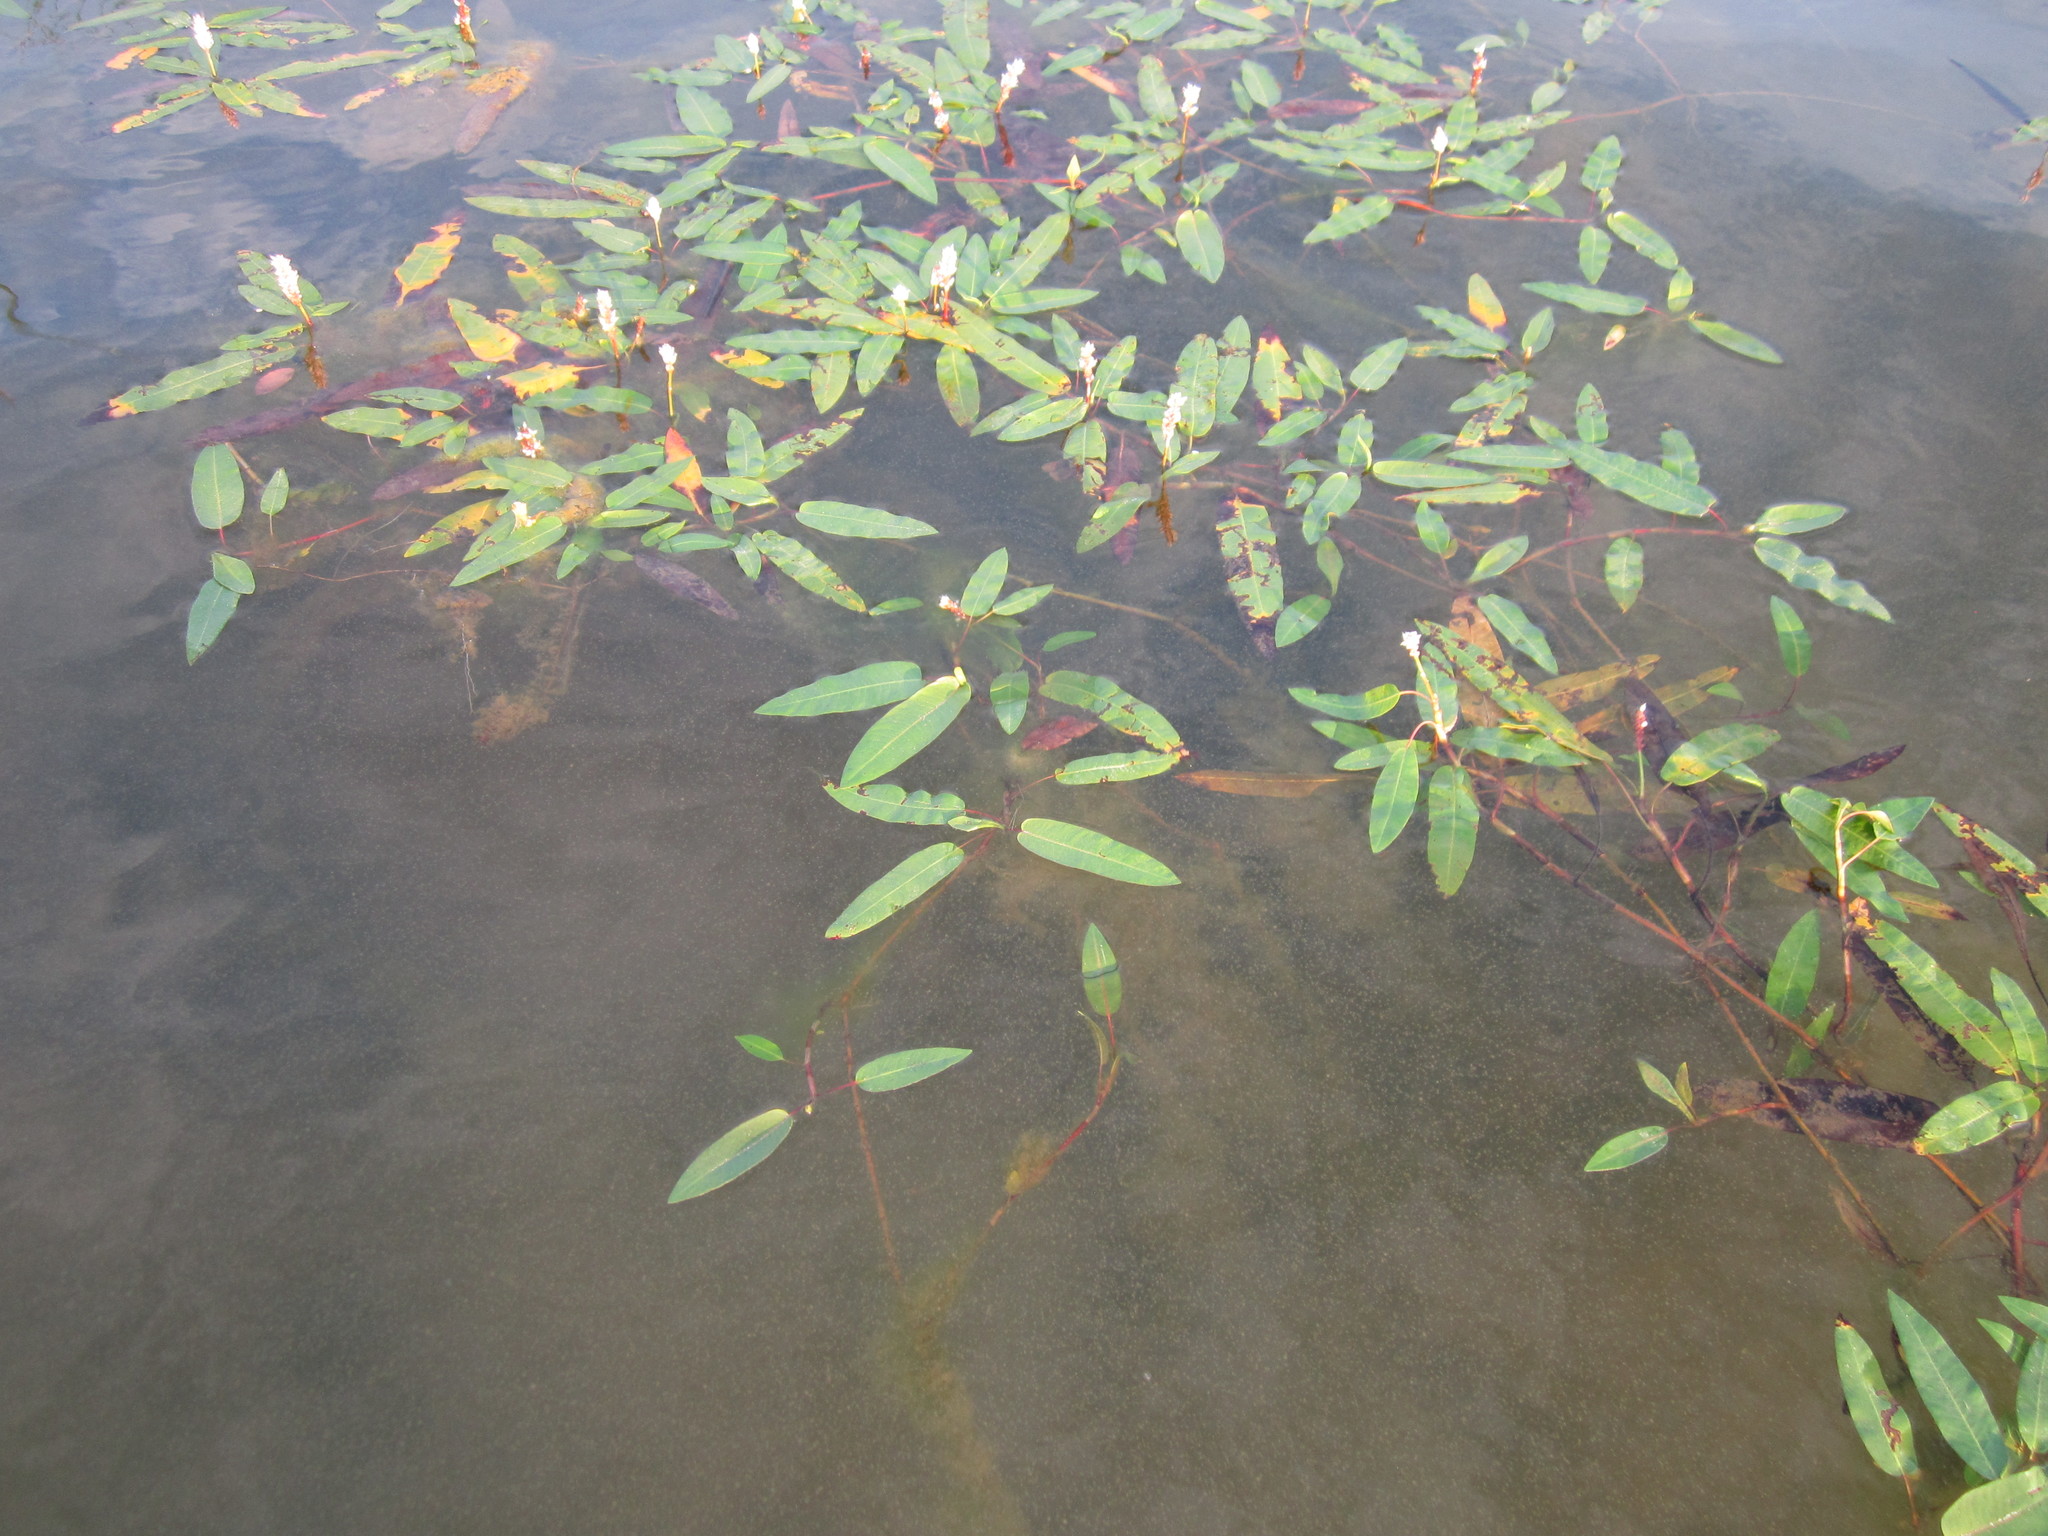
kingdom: Plantae
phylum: Tracheophyta
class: Magnoliopsida
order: Caryophyllales
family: Polygonaceae
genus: Persicaria
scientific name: Persicaria amphibia
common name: Amphibious bistort
